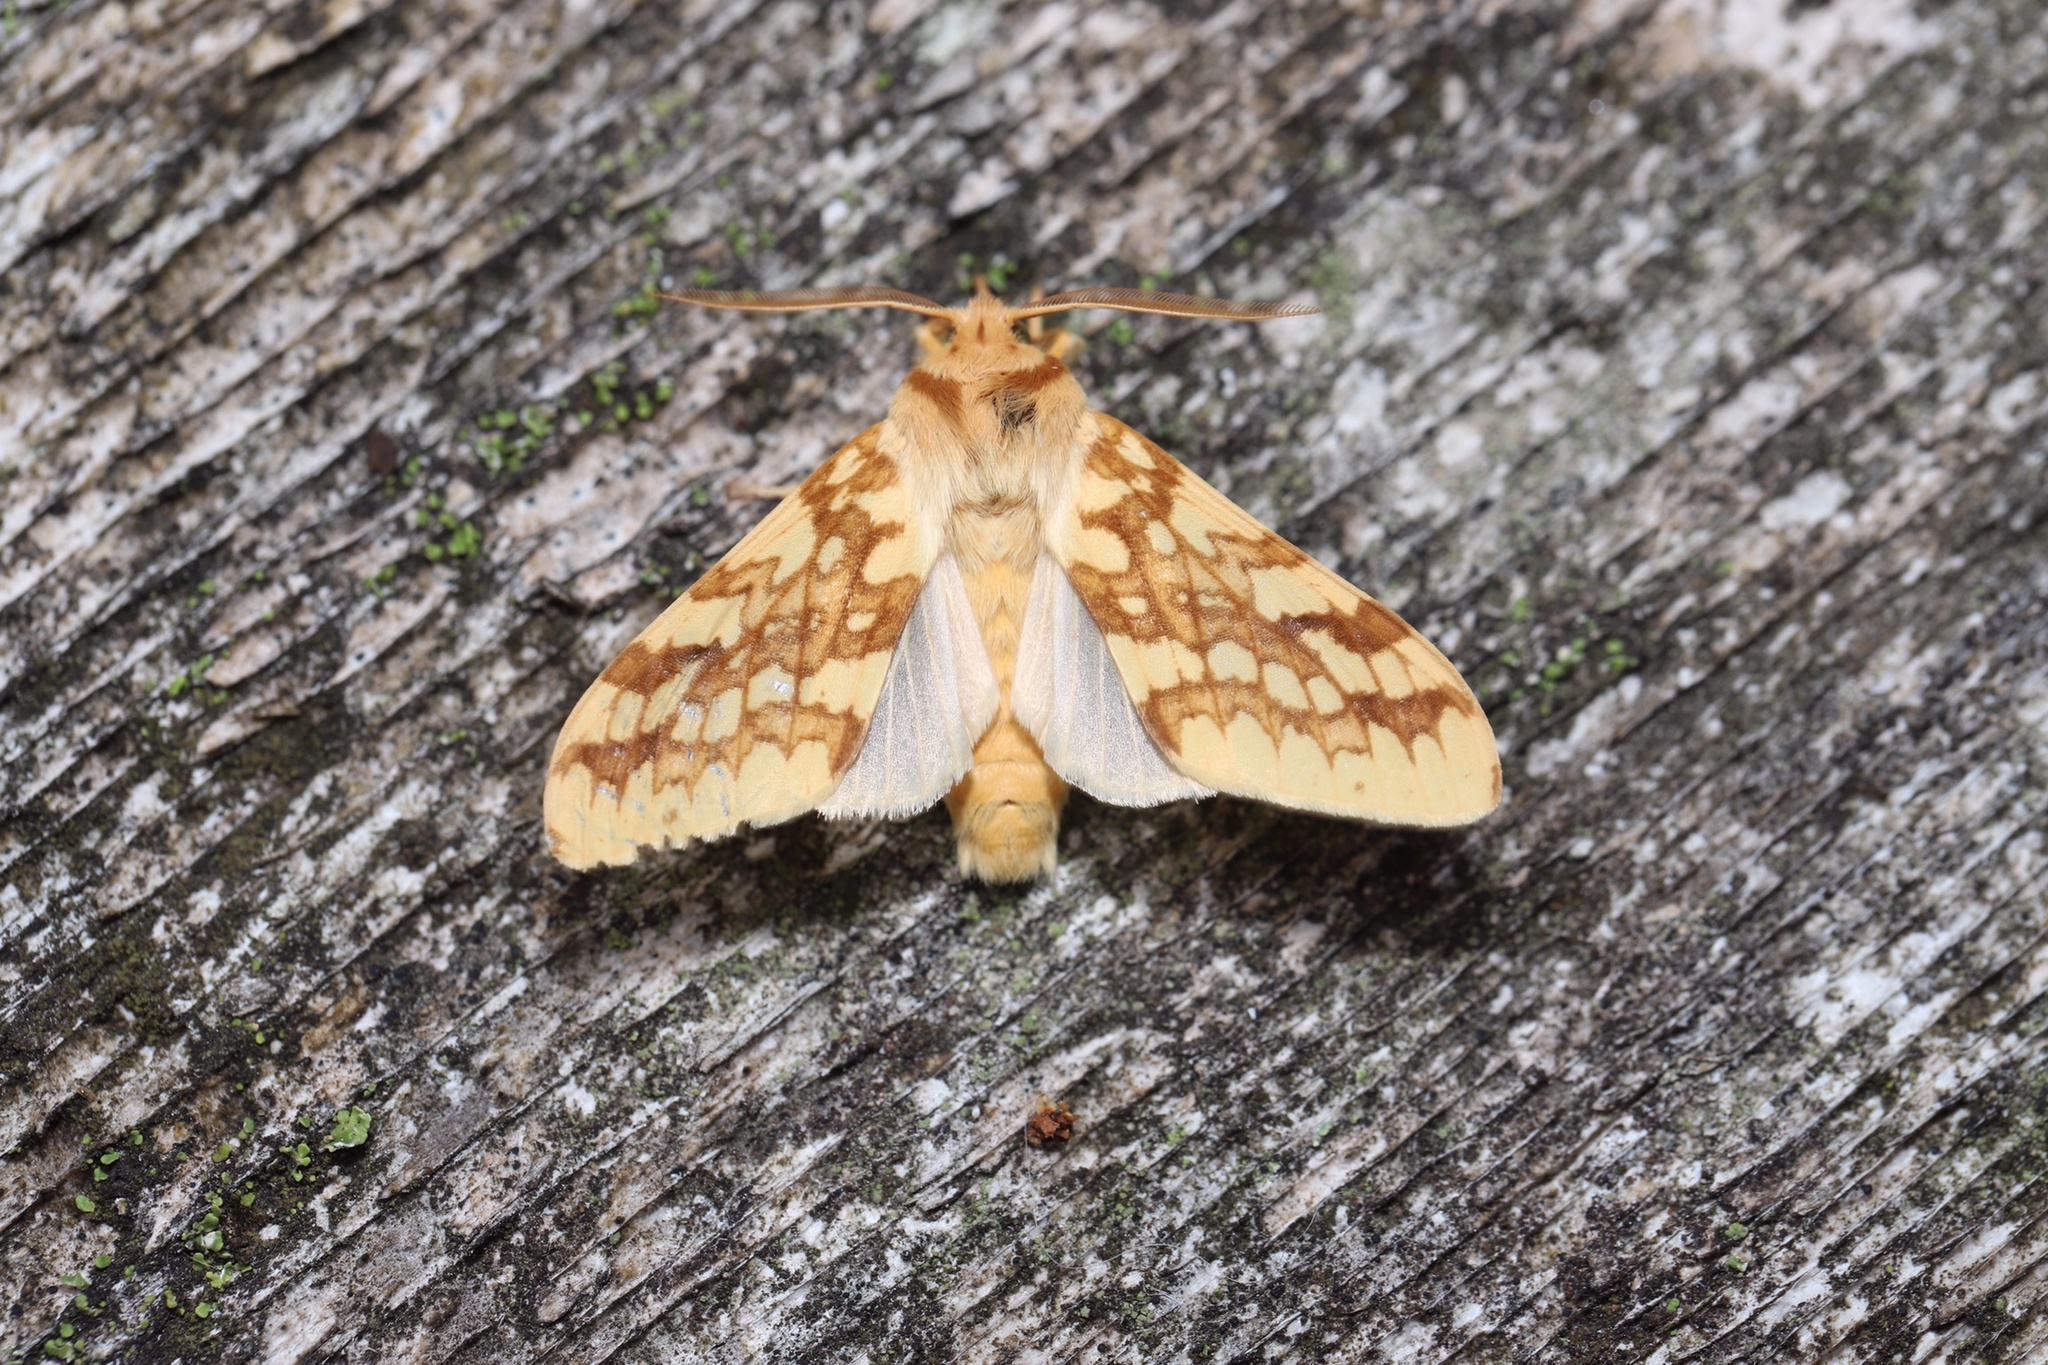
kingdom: Animalia
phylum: Arthropoda
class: Insecta
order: Lepidoptera
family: Erebidae
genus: Lophocampa
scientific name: Lophocampa maculata
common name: Spotted tussock moth
